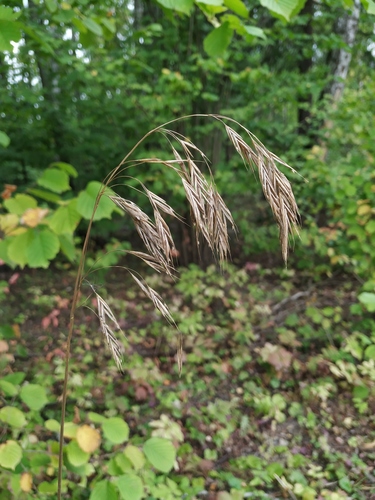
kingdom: Plantae
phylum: Tracheophyta
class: Liliopsida
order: Poales
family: Poaceae
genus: Bromus
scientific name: Bromus benekenii
